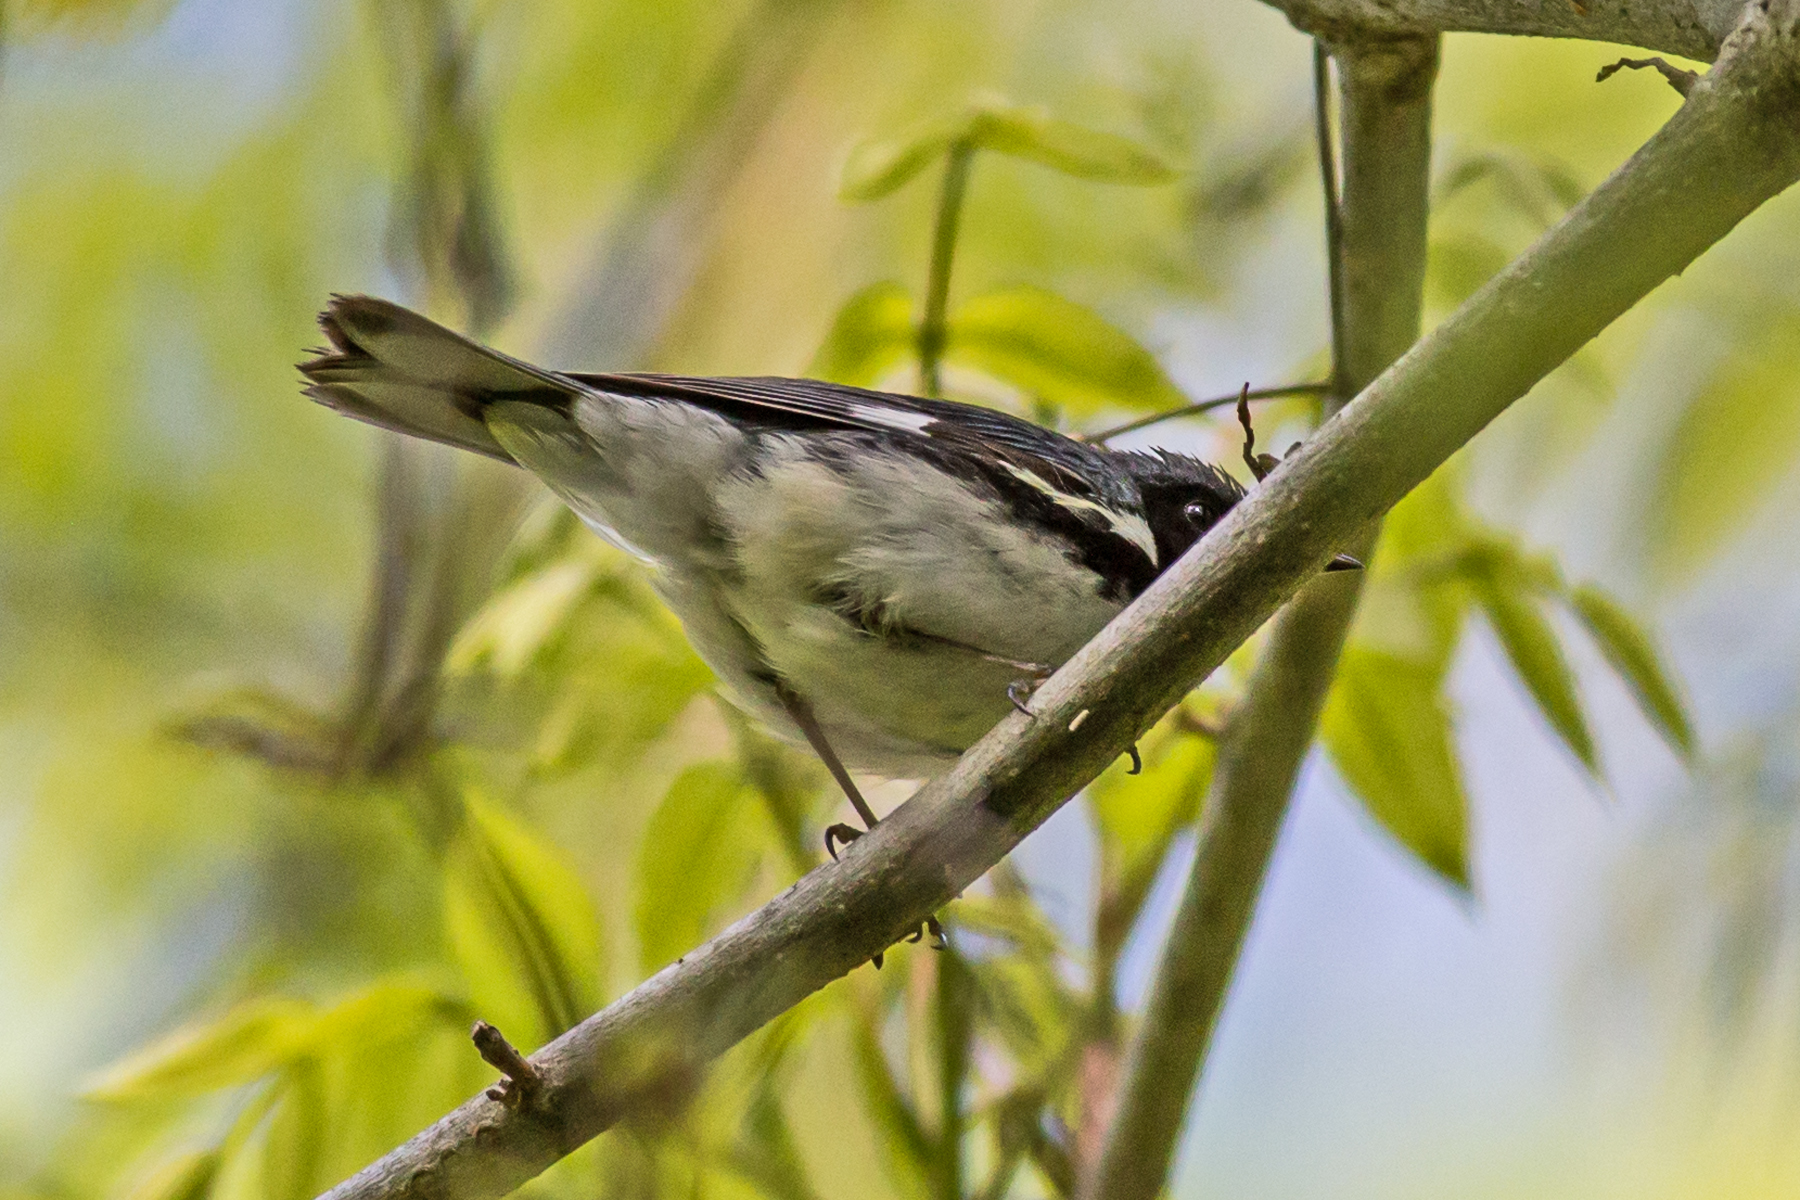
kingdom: Animalia
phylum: Chordata
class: Aves
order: Passeriformes
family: Parulidae
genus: Setophaga
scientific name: Setophaga caerulescens
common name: Black-throated blue warbler
